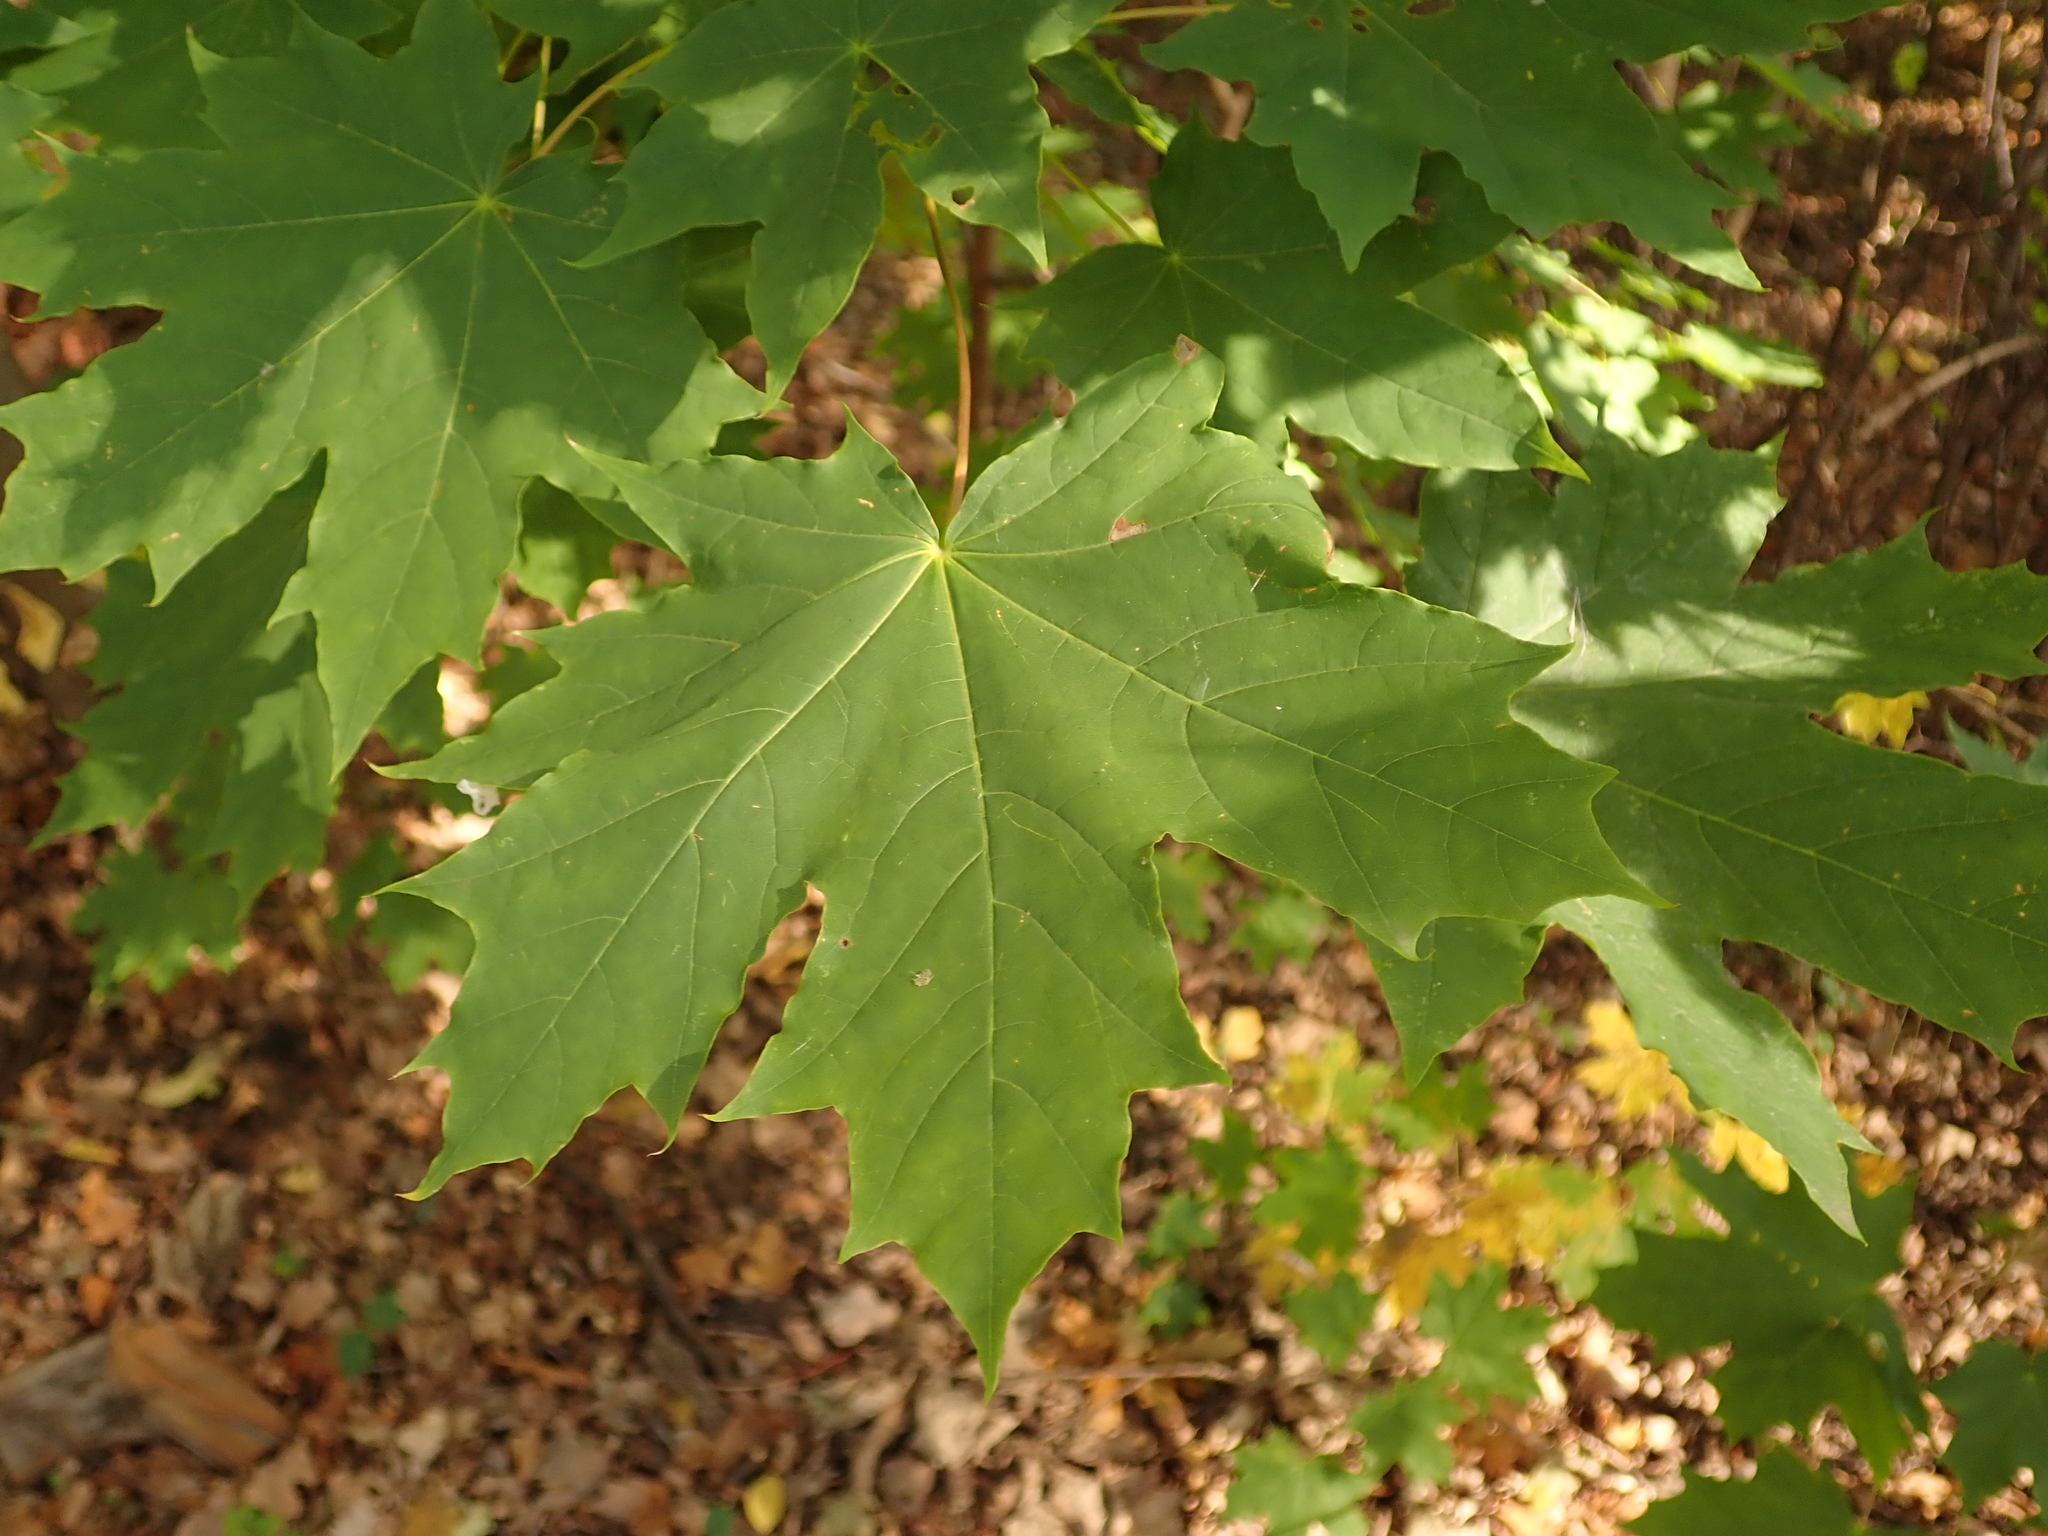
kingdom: Plantae
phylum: Tracheophyta
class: Magnoliopsida
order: Sapindales
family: Sapindaceae
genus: Acer
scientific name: Acer platanoides
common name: Norway maple
